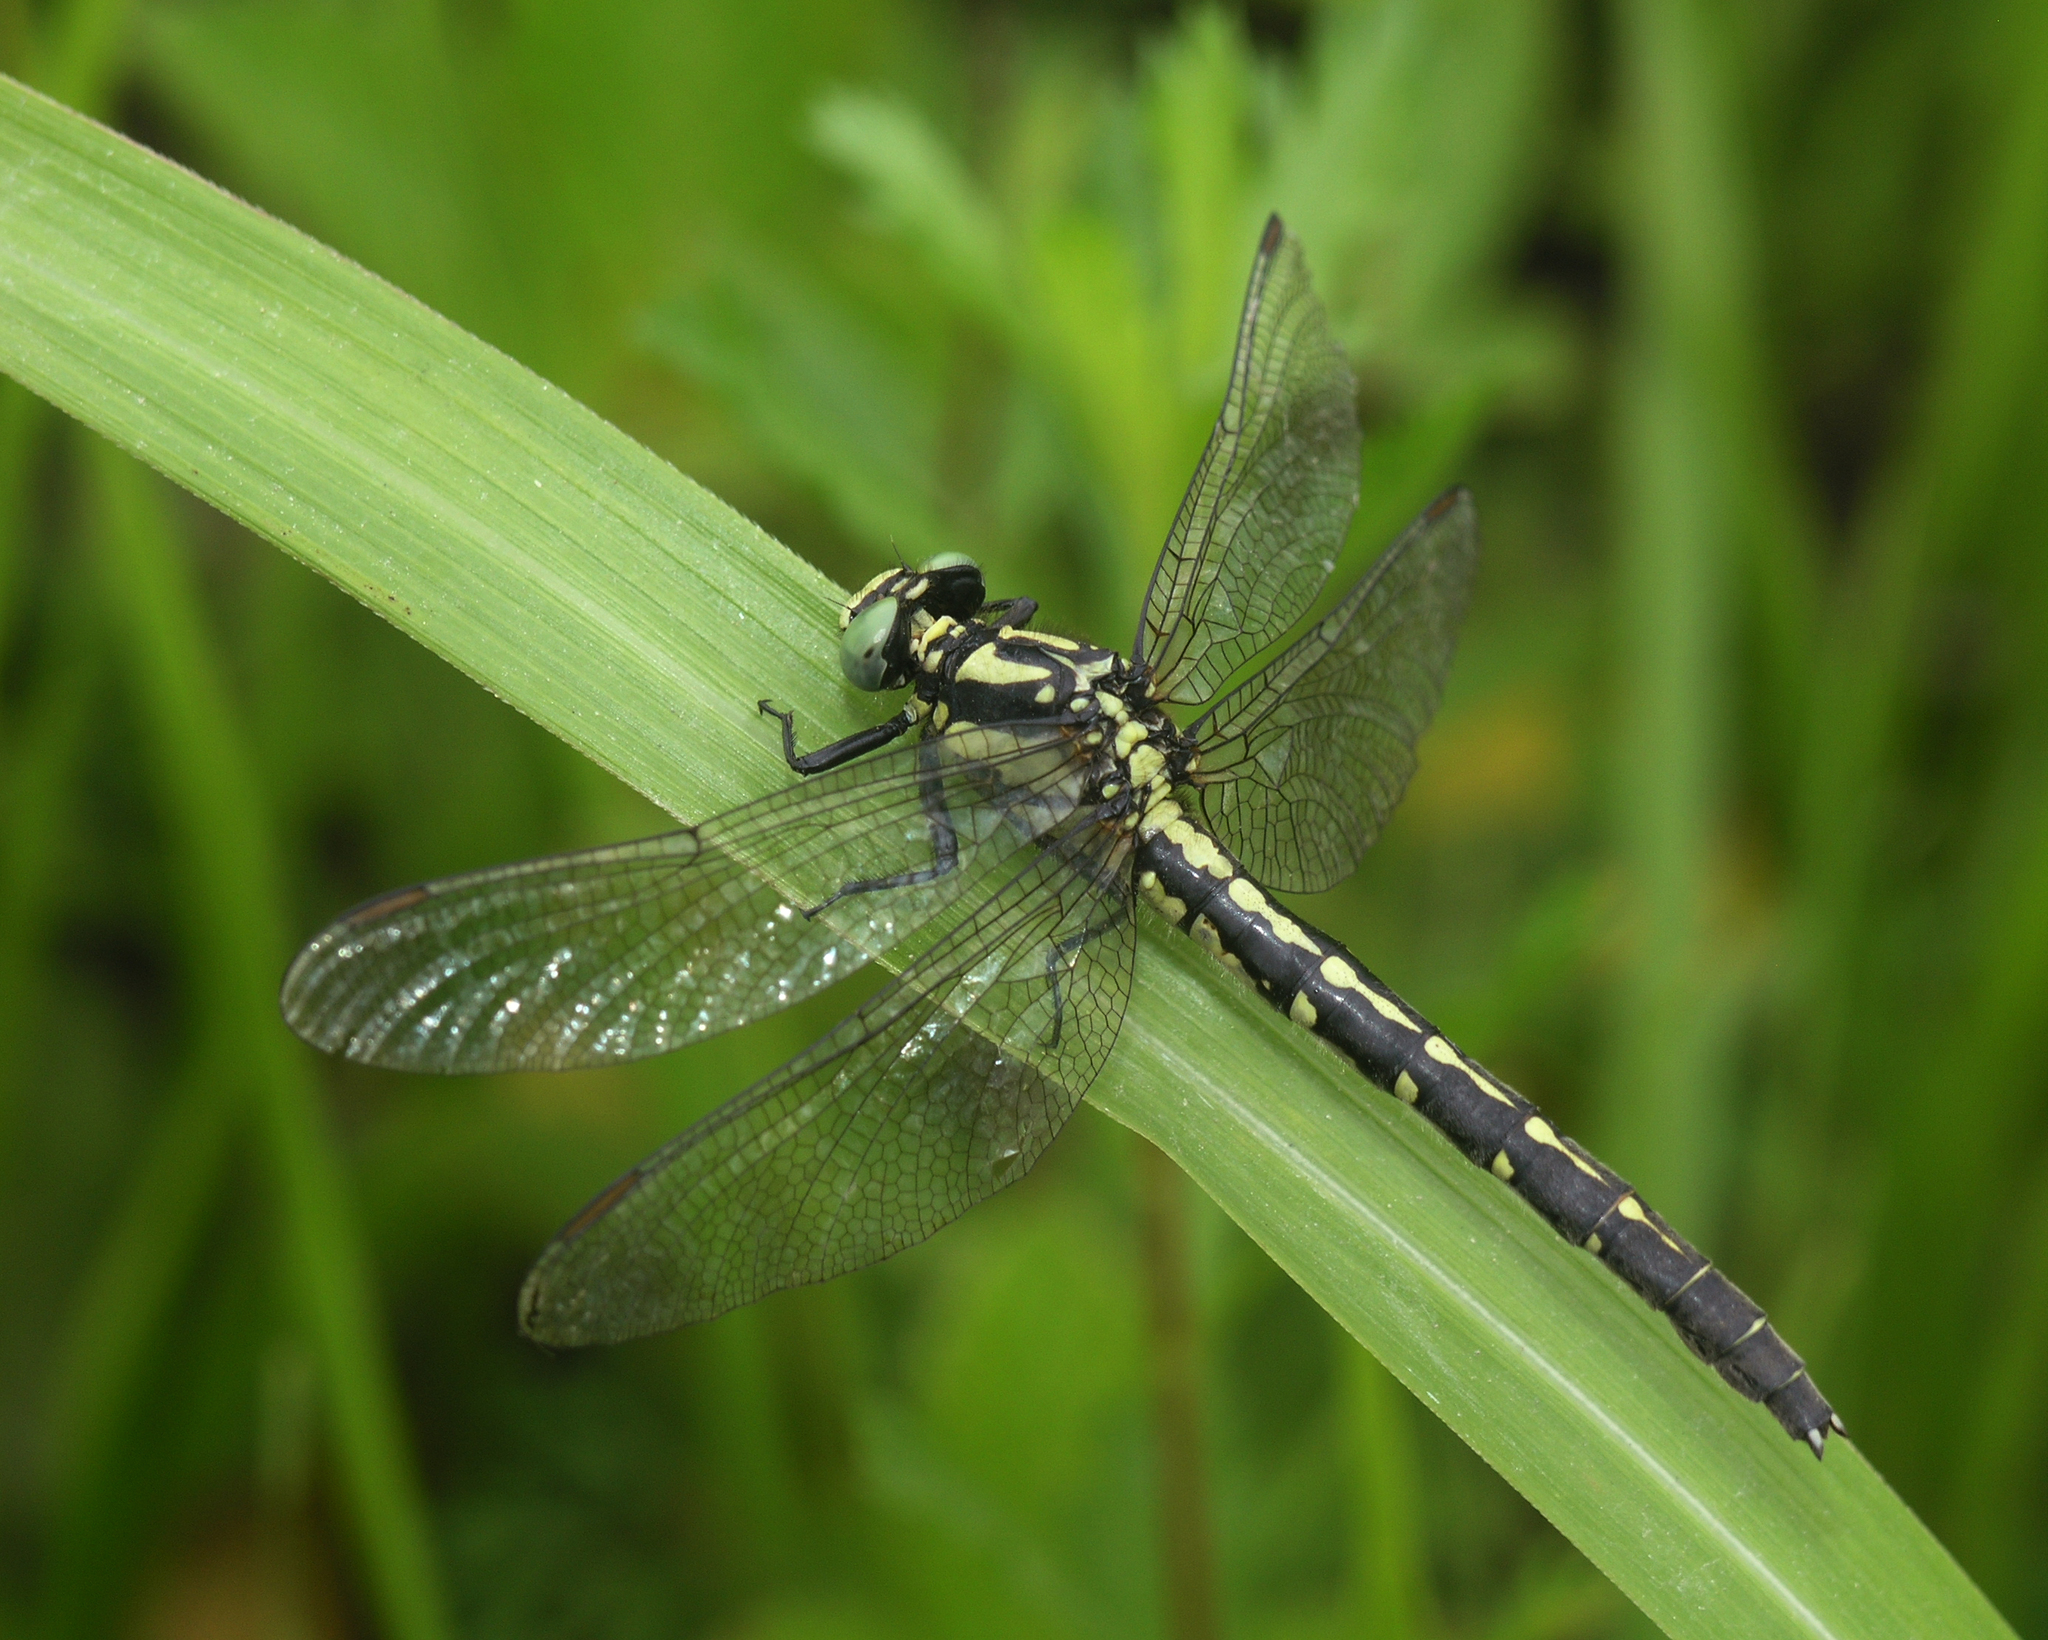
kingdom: Animalia
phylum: Arthropoda
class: Insecta
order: Odonata
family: Gomphidae
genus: Trigomphus
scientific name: Trigomphus nigripes
